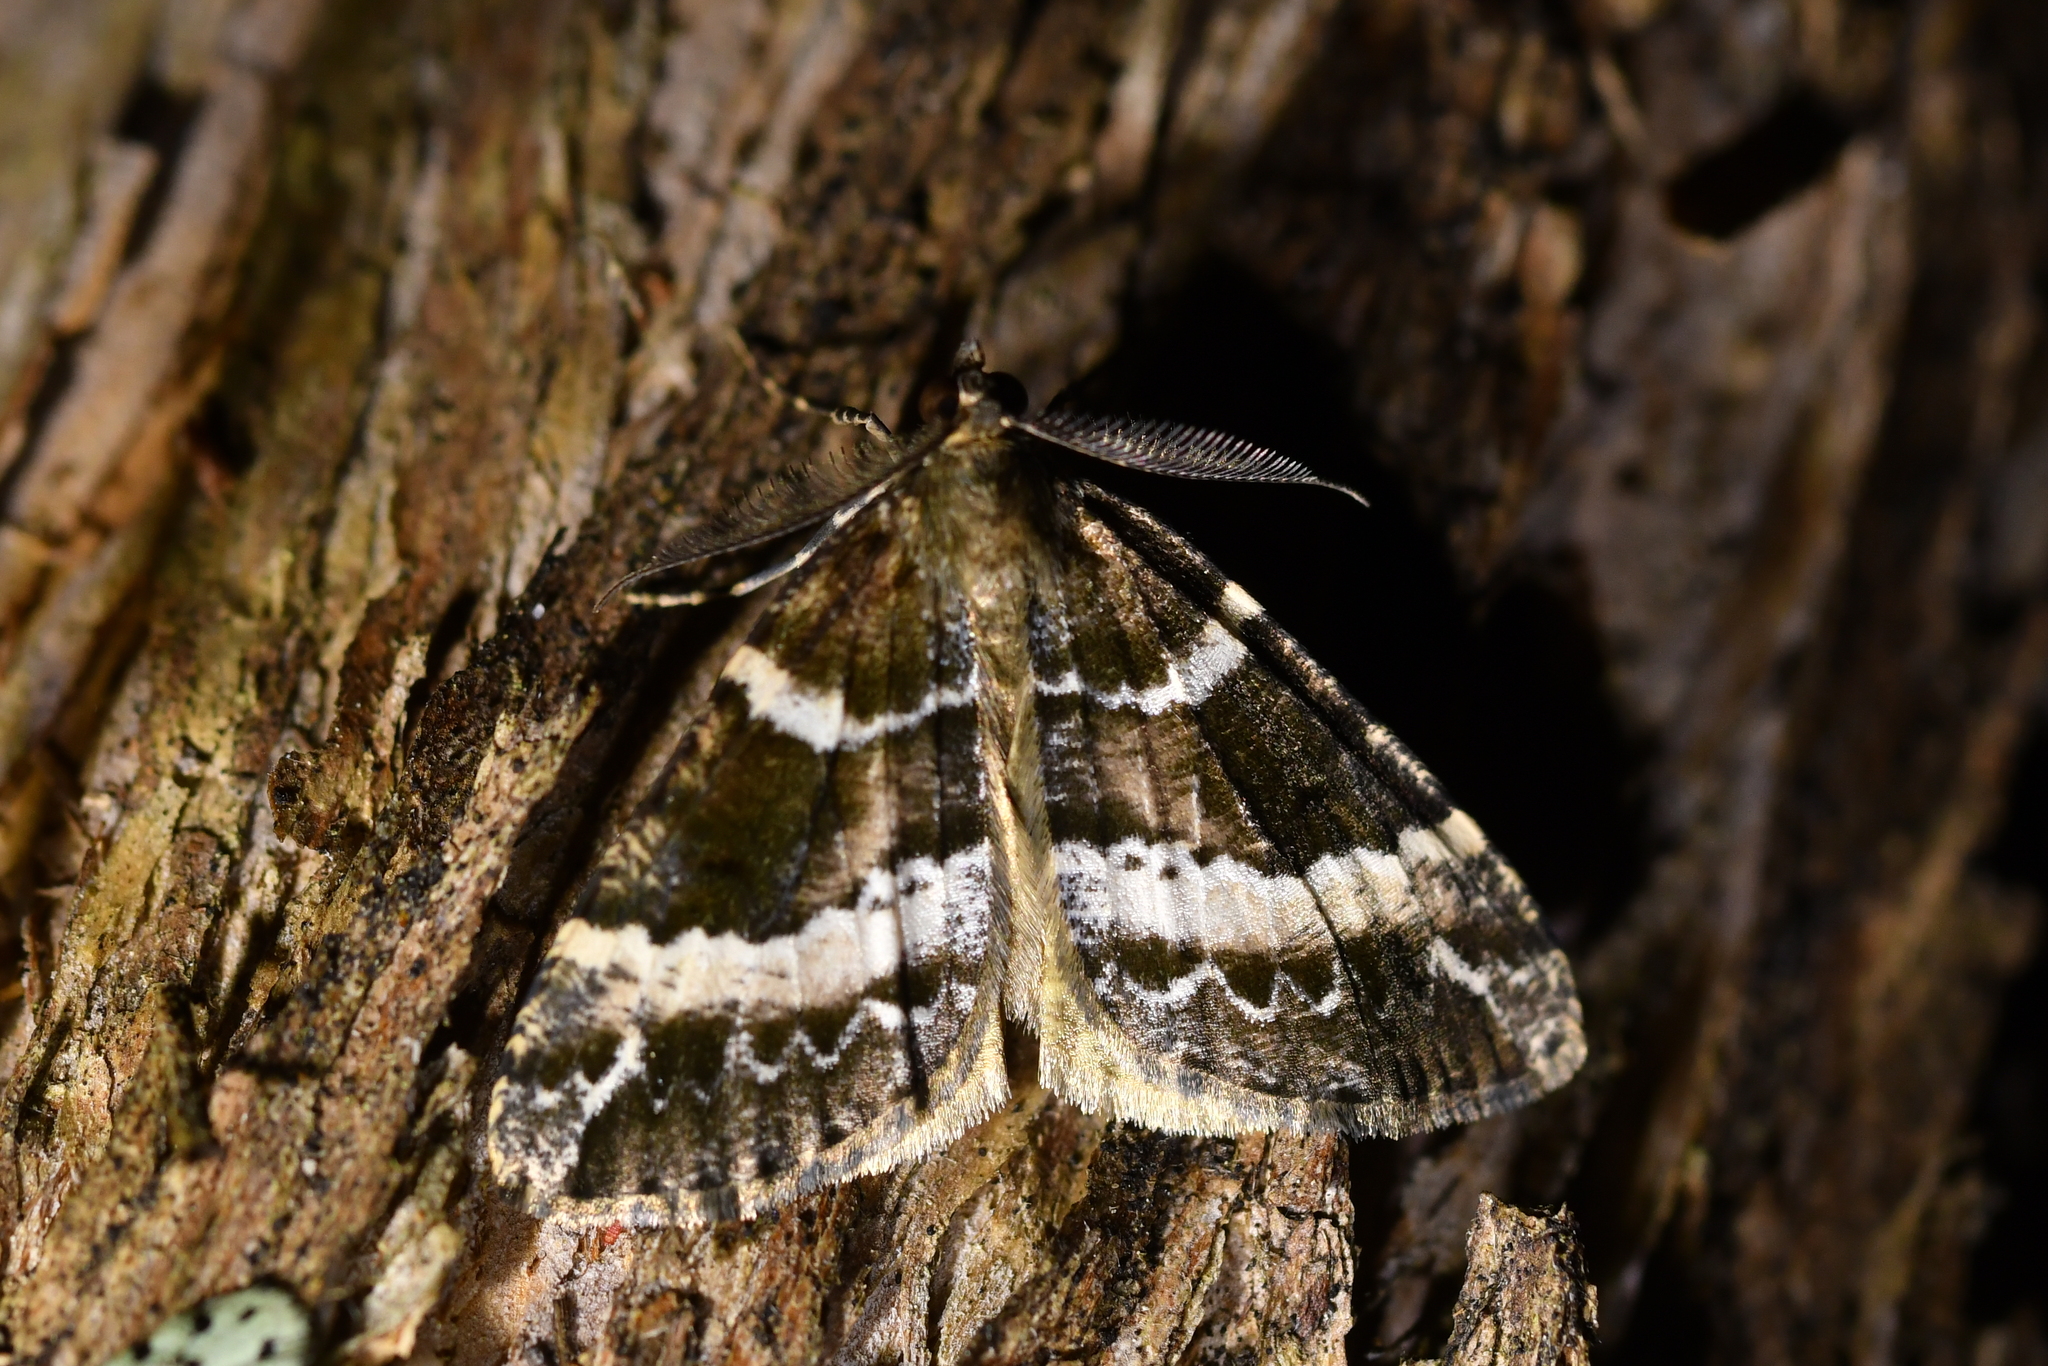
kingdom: Animalia
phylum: Arthropoda
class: Insecta
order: Lepidoptera
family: Geometridae
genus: Pseudocoremia
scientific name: Pseudocoremia
